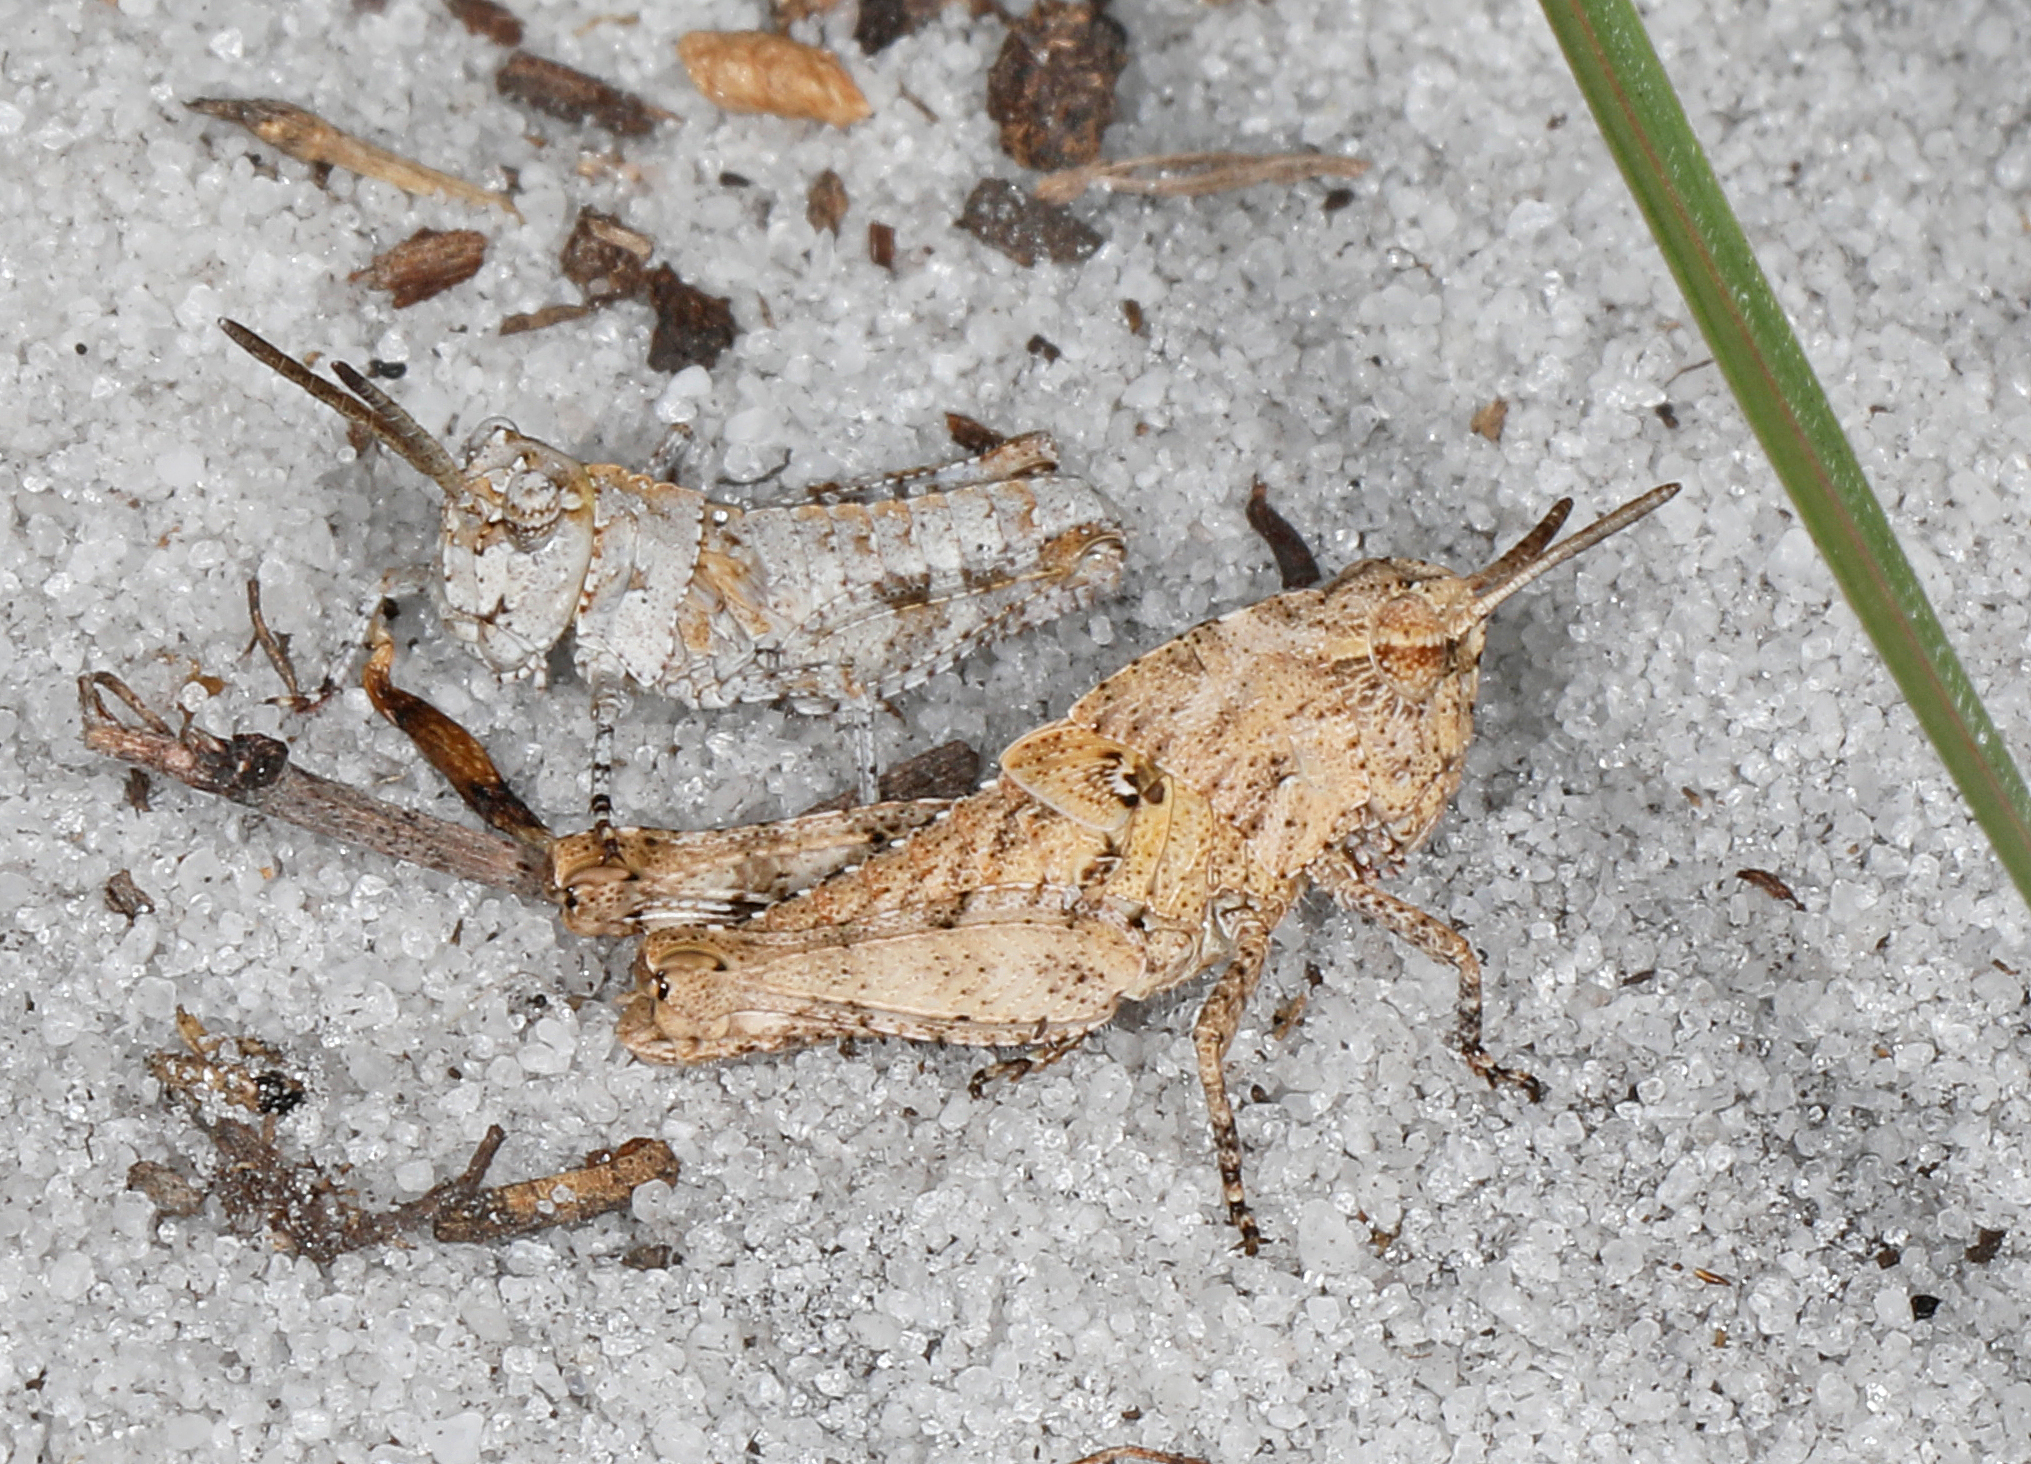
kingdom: Animalia
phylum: Arthropoda
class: Insecta
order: Orthoptera
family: Acrididae
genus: Chortophaga
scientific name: Chortophaga australior
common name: Southern green-striped grasshopper
